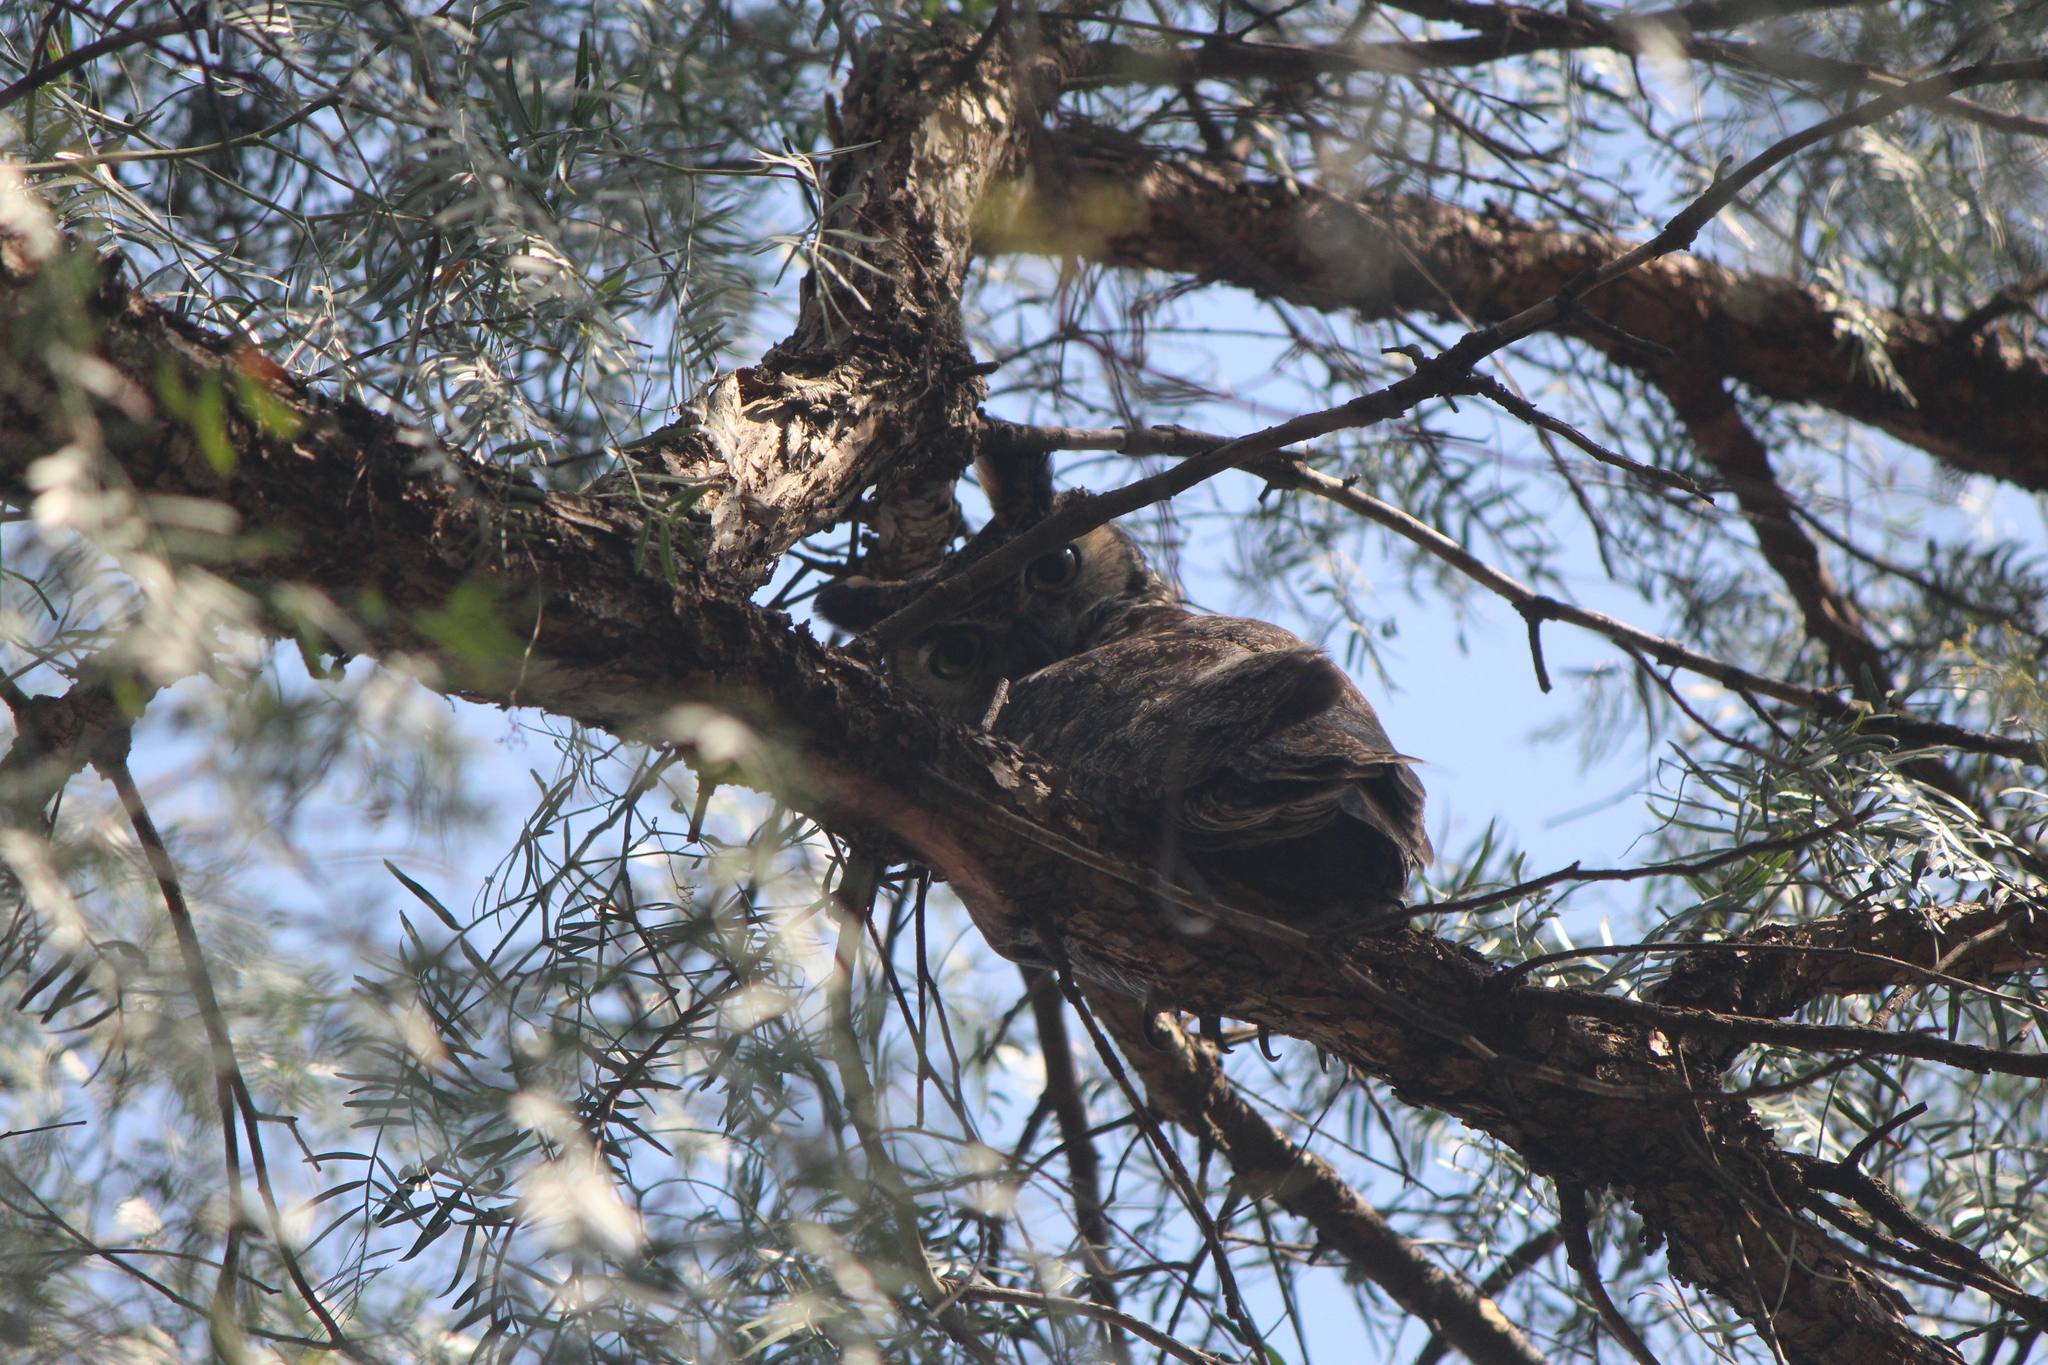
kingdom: Animalia
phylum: Chordata
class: Aves
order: Strigiformes
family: Strigidae
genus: Bubo
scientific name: Bubo virginianus
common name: Great horned owl
